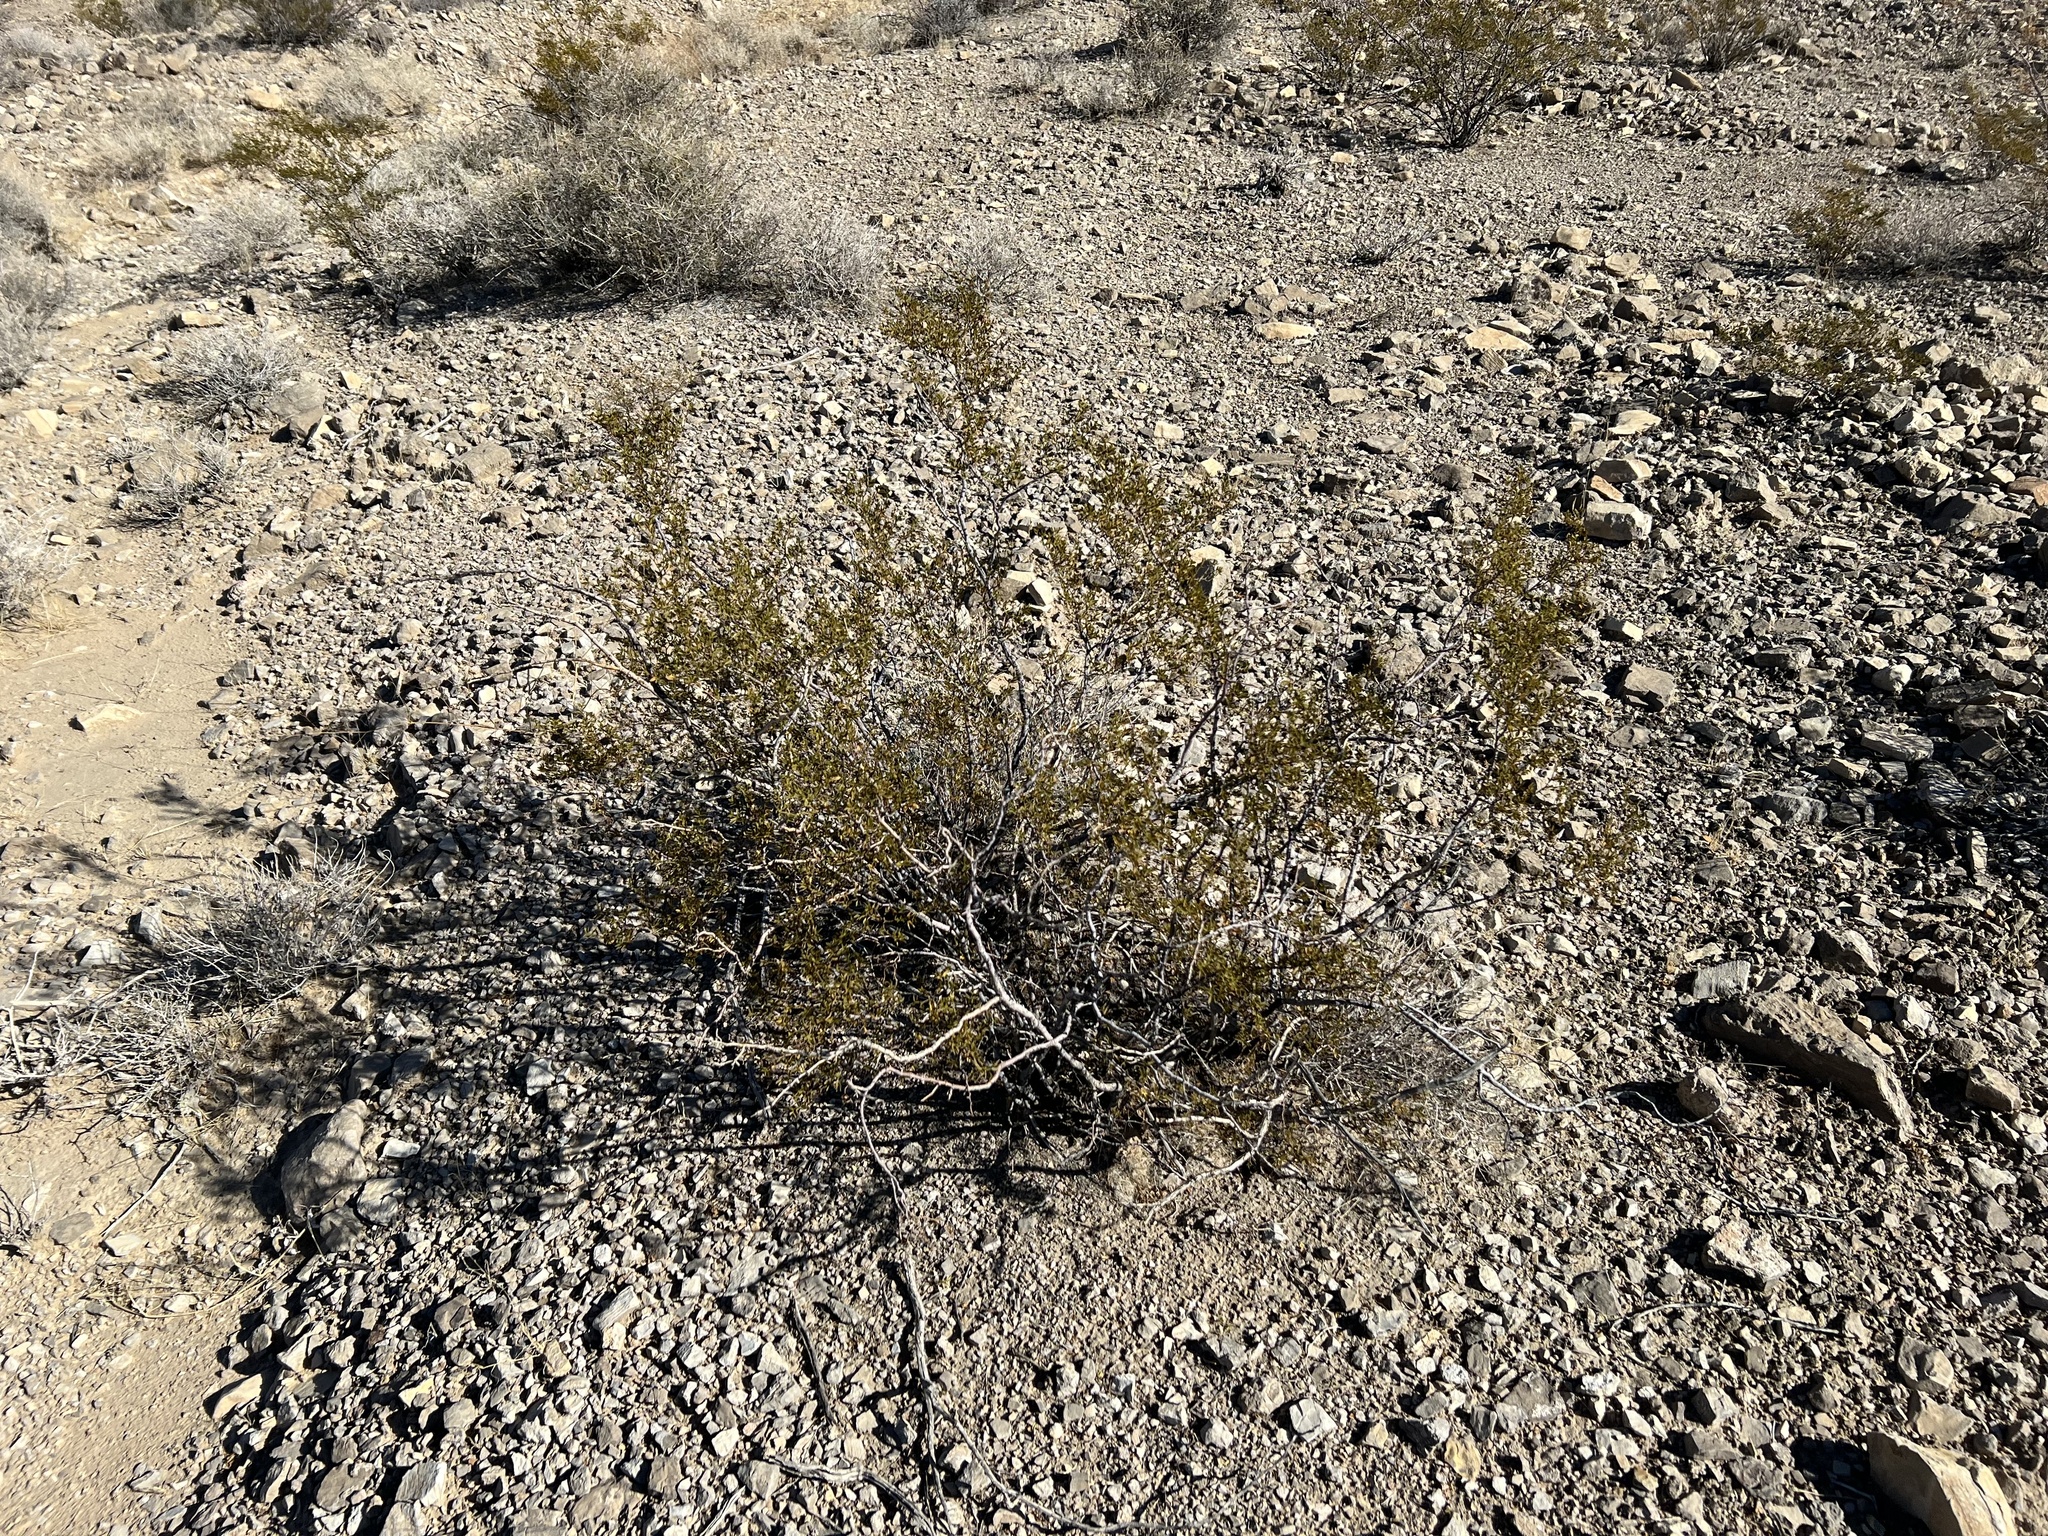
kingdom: Plantae
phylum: Tracheophyta
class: Magnoliopsida
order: Zygophyllales
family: Zygophyllaceae
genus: Larrea
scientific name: Larrea tridentata
